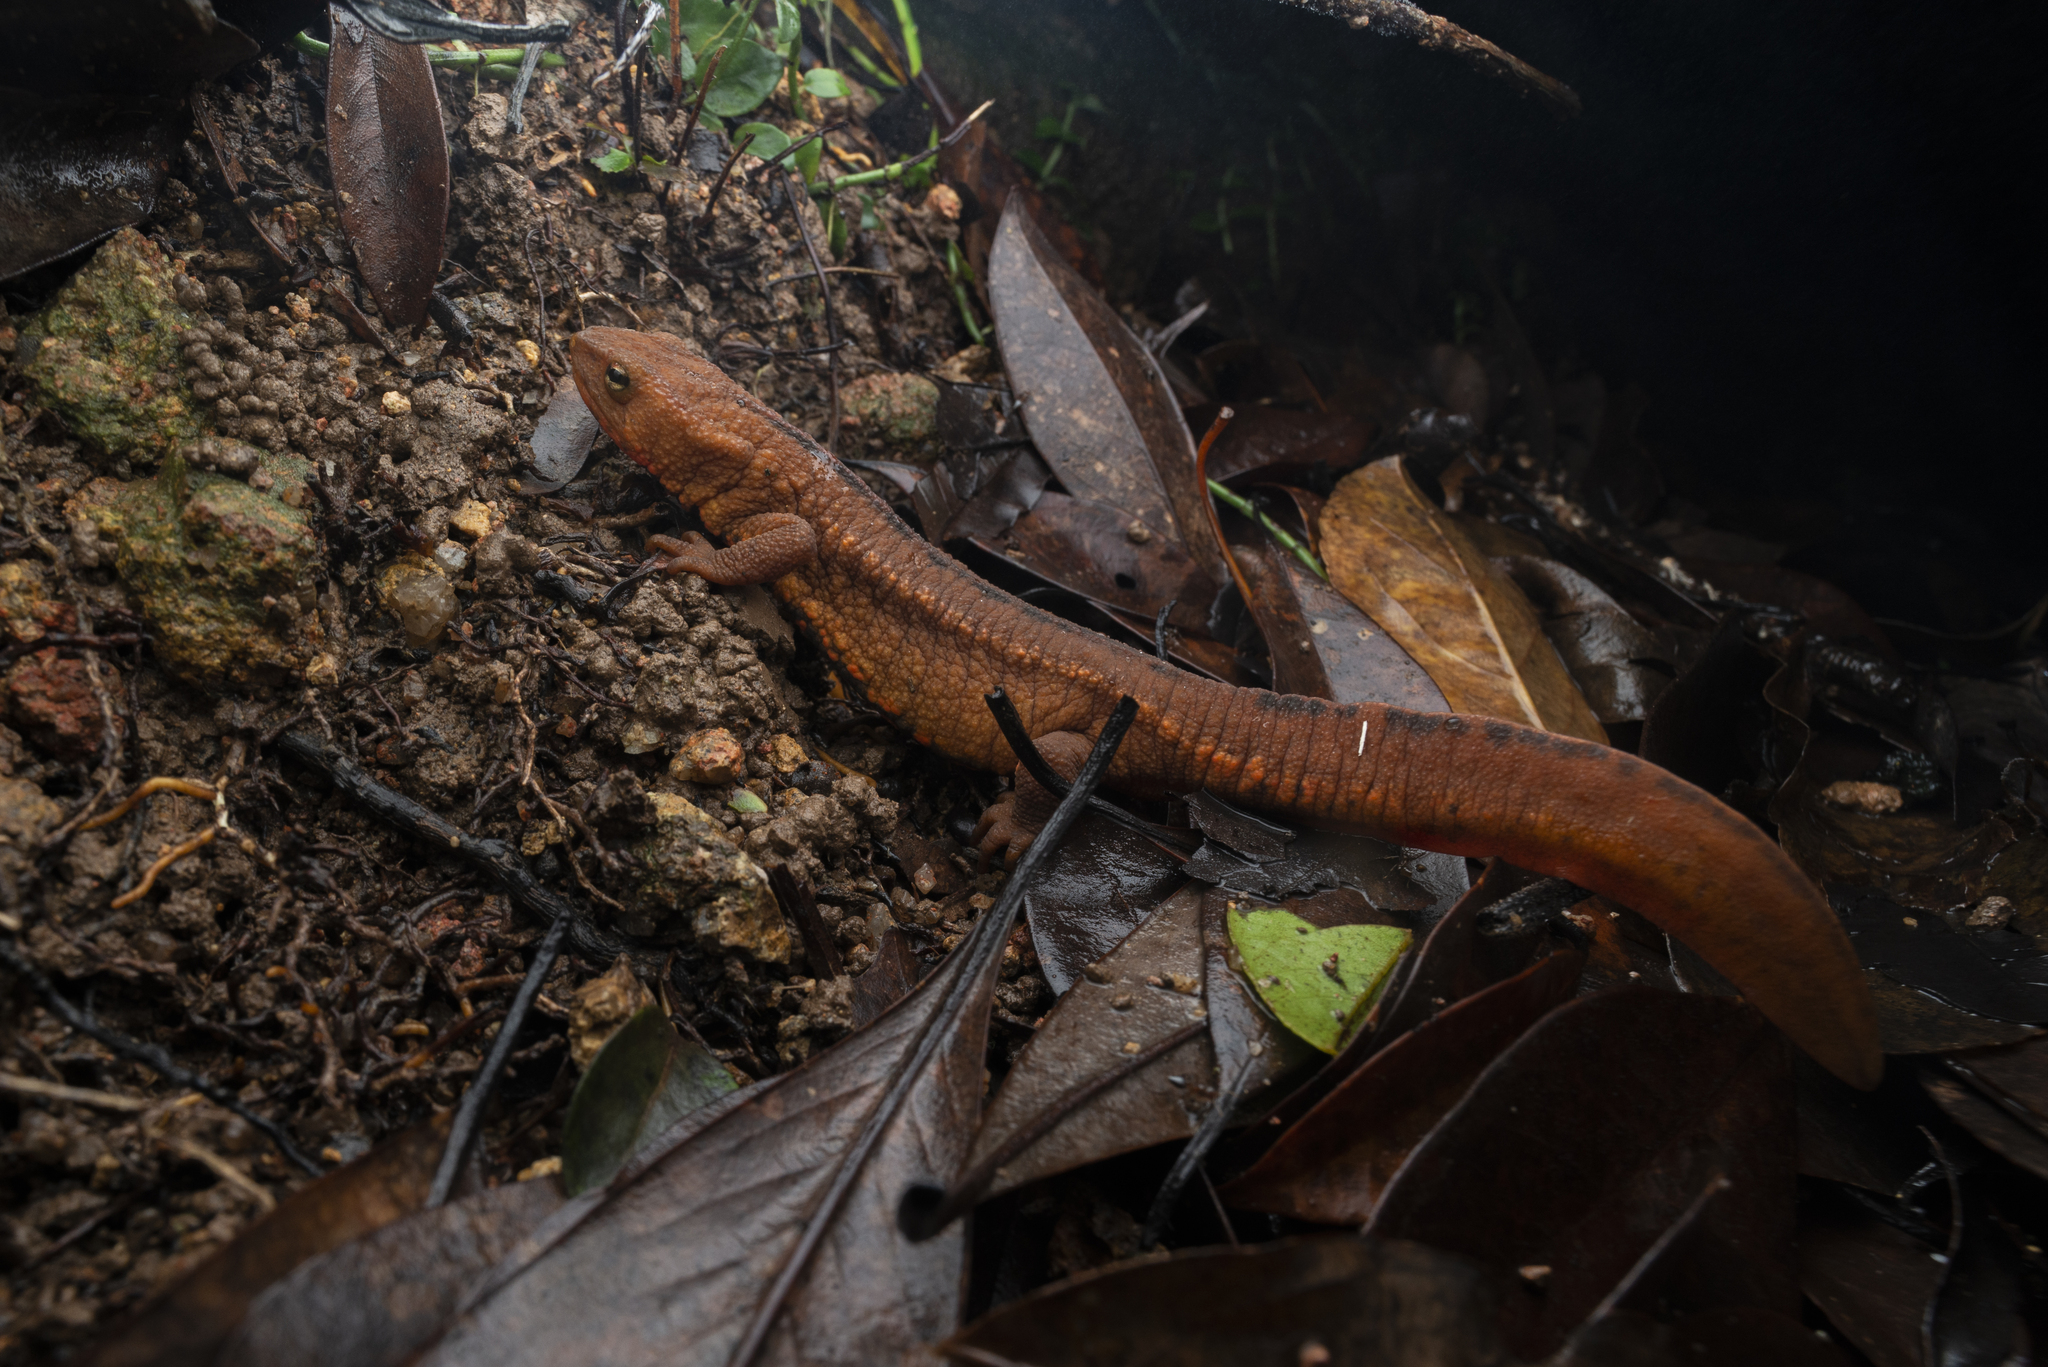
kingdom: Animalia
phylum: Chordata
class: Amphibia
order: Caudata
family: Salamandridae
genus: Paramesotriton
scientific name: Paramesotriton hongkongensis
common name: Hong kong warty newt
